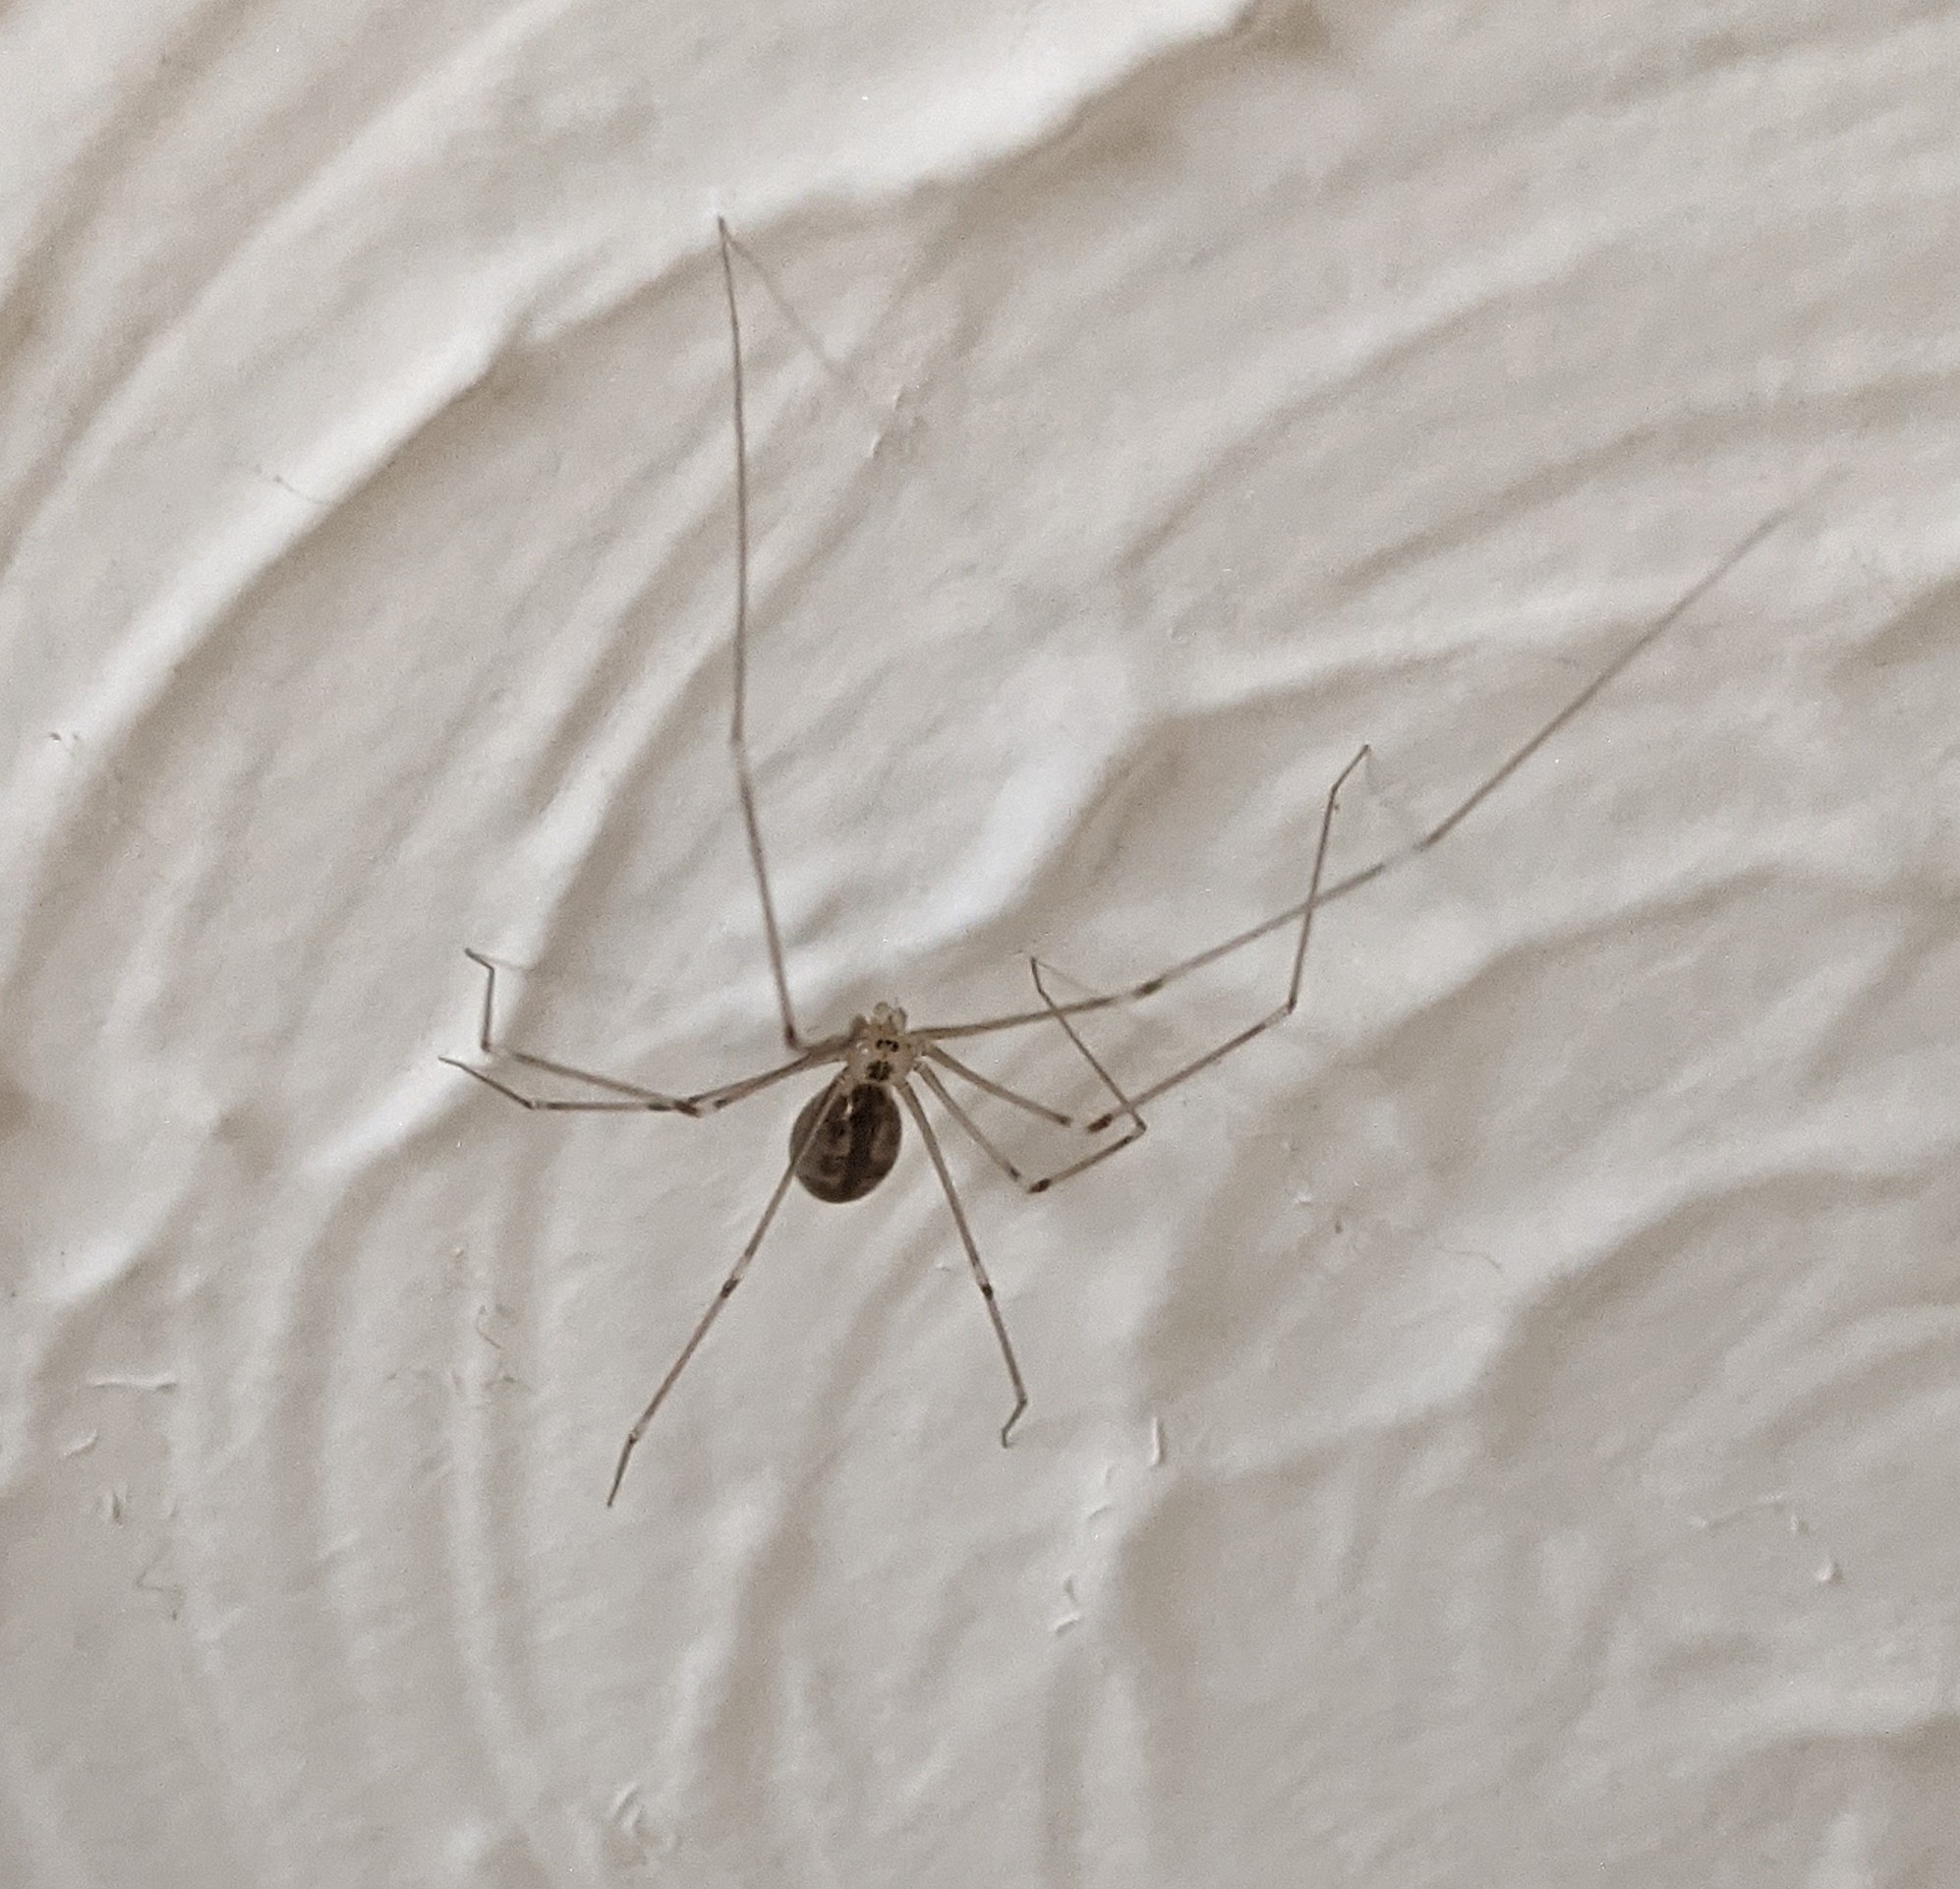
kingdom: Animalia
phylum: Arthropoda
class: Arachnida
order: Araneae
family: Pholcidae
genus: Pholcus
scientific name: Pholcus phalangioides
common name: Longbodied cellar spider
